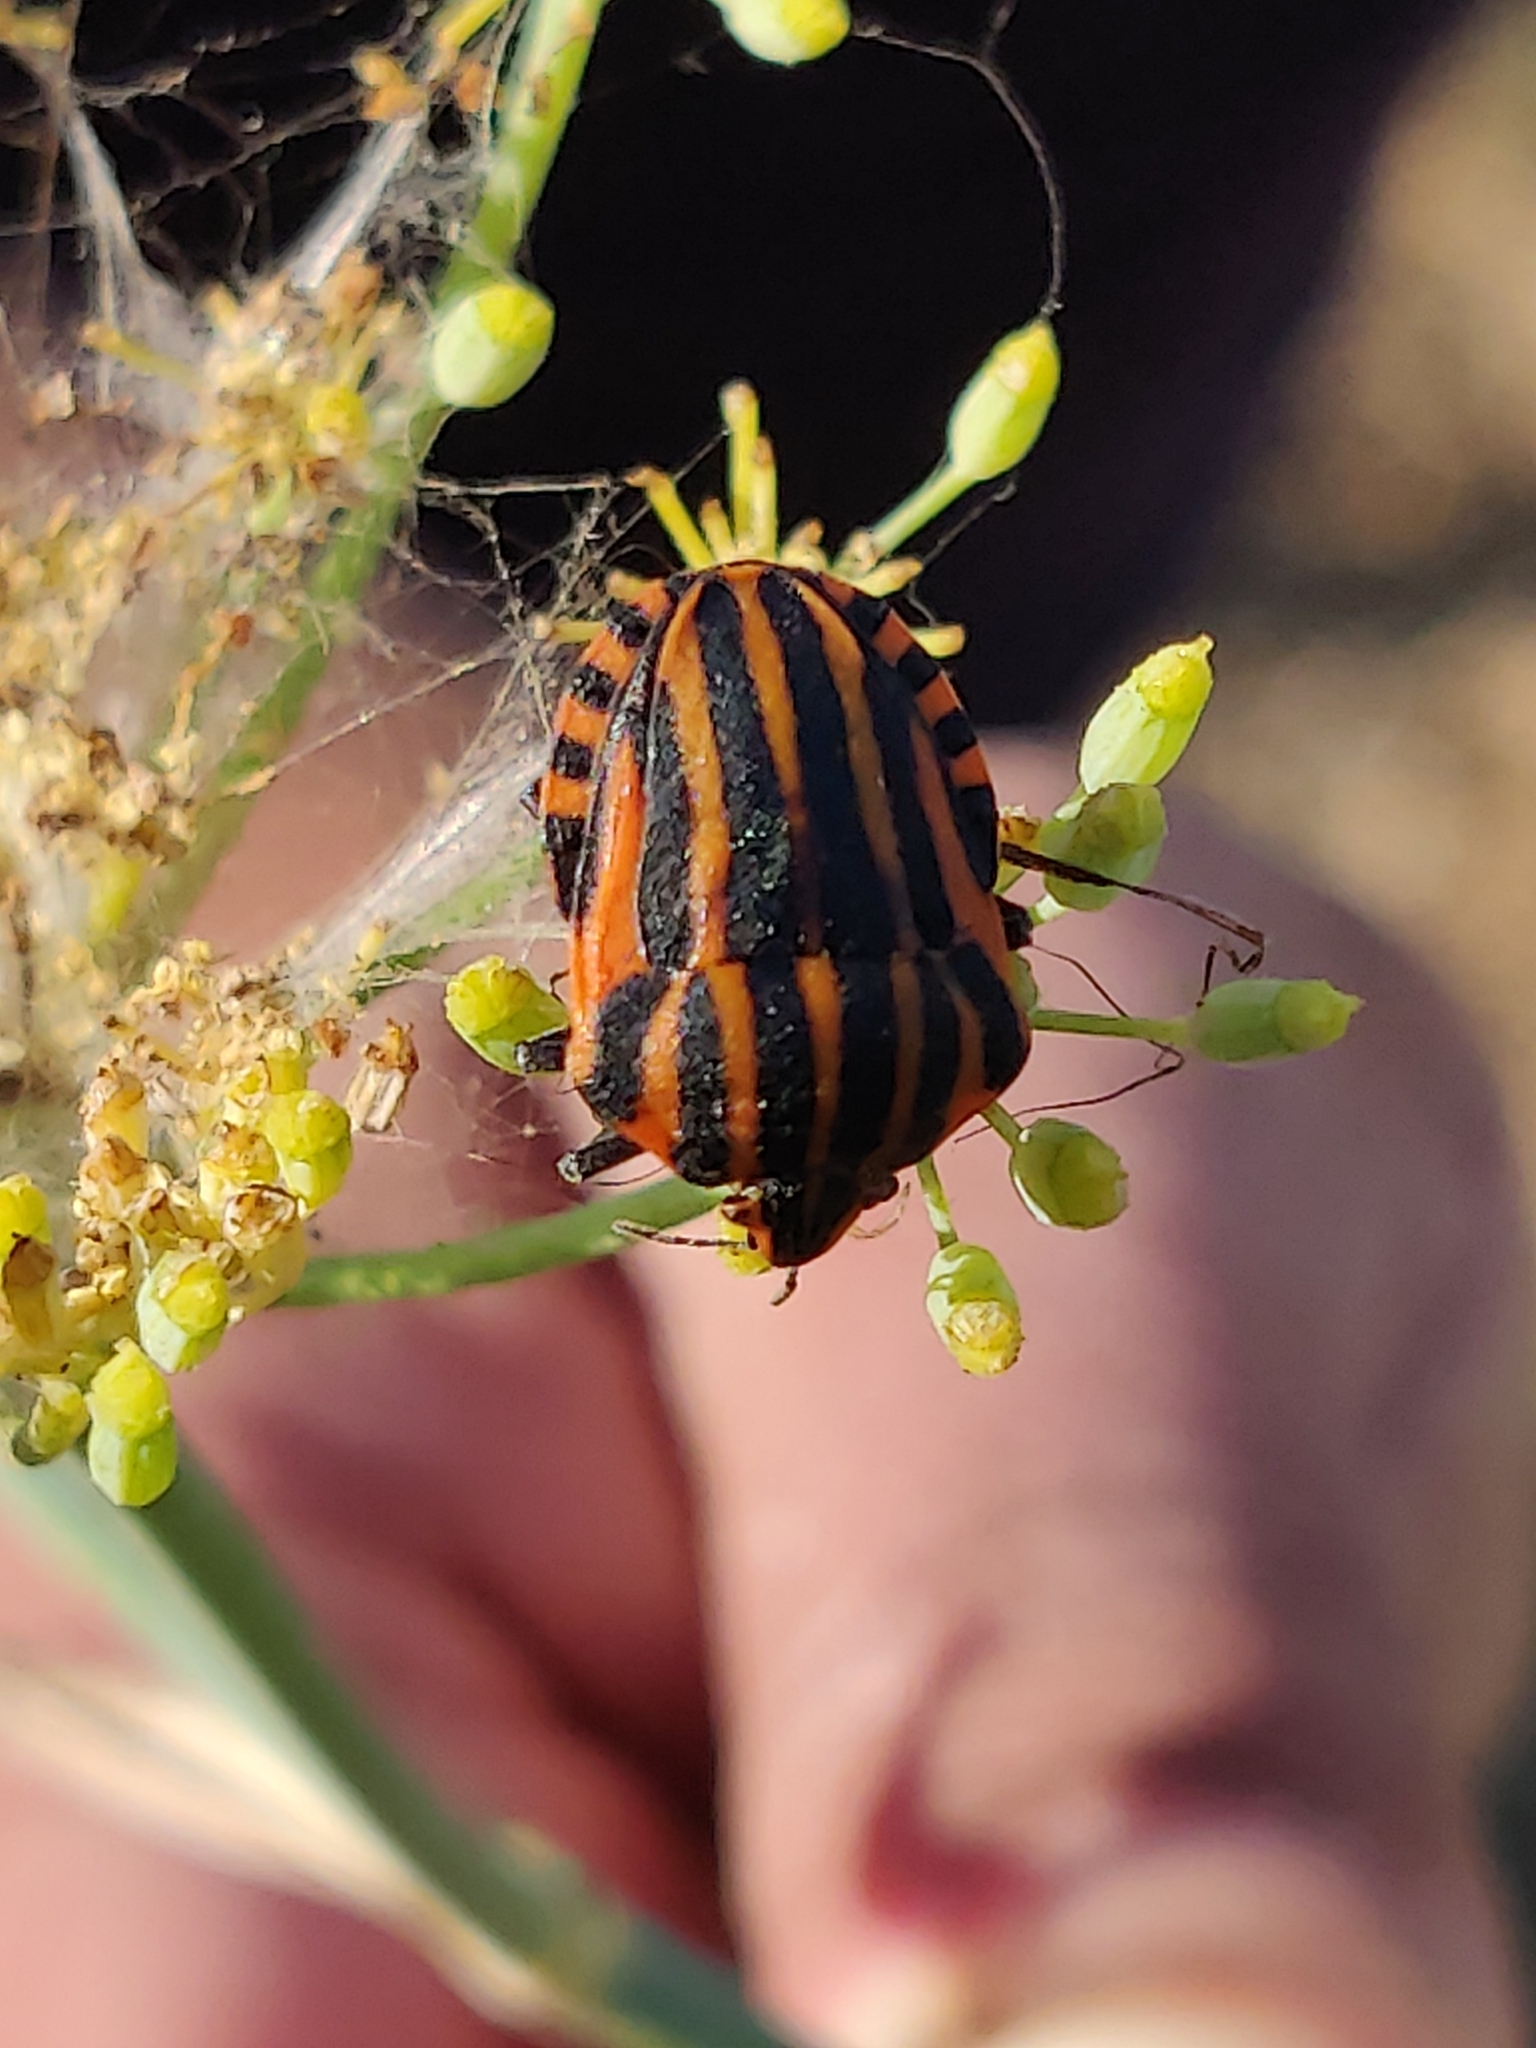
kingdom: Animalia
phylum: Arthropoda
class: Insecta
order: Hemiptera
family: Pentatomidae
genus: Graphosoma
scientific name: Graphosoma italicum
